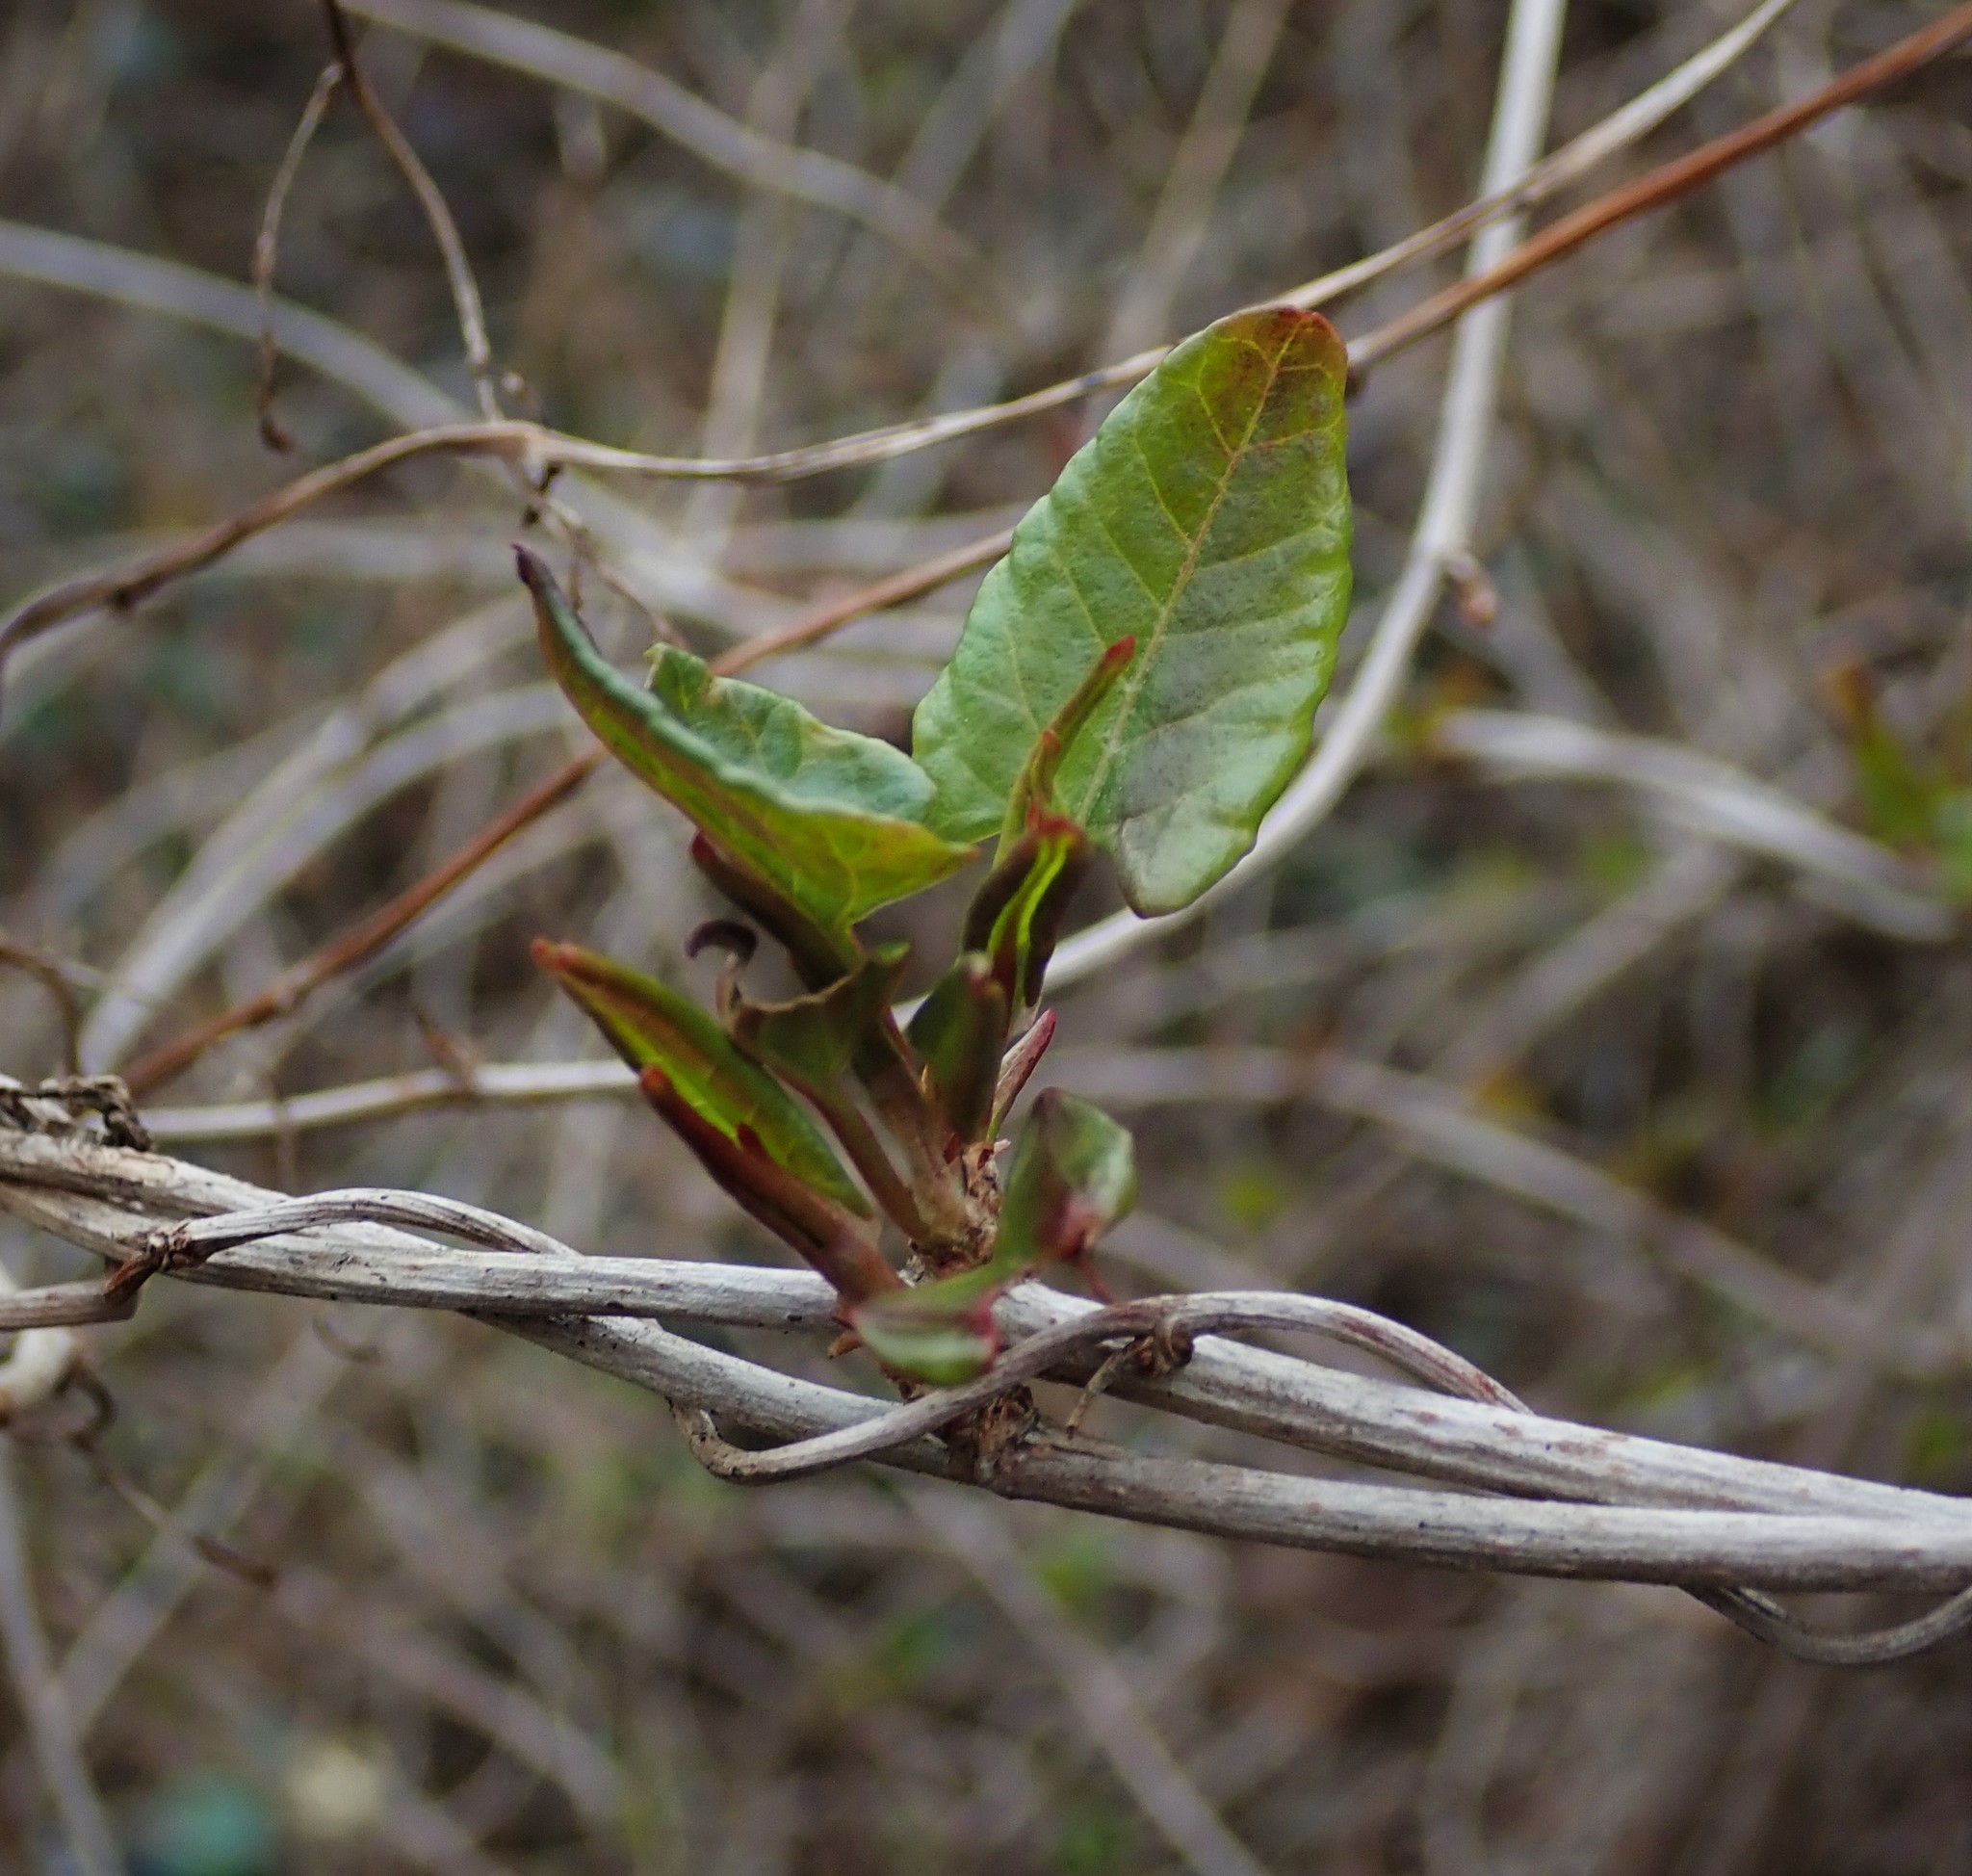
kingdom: Plantae
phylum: Tracheophyta
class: Magnoliopsida
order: Caryophyllales
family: Polygonaceae
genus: Fallopia
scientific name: Fallopia baldschuanica
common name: Russian-vine
